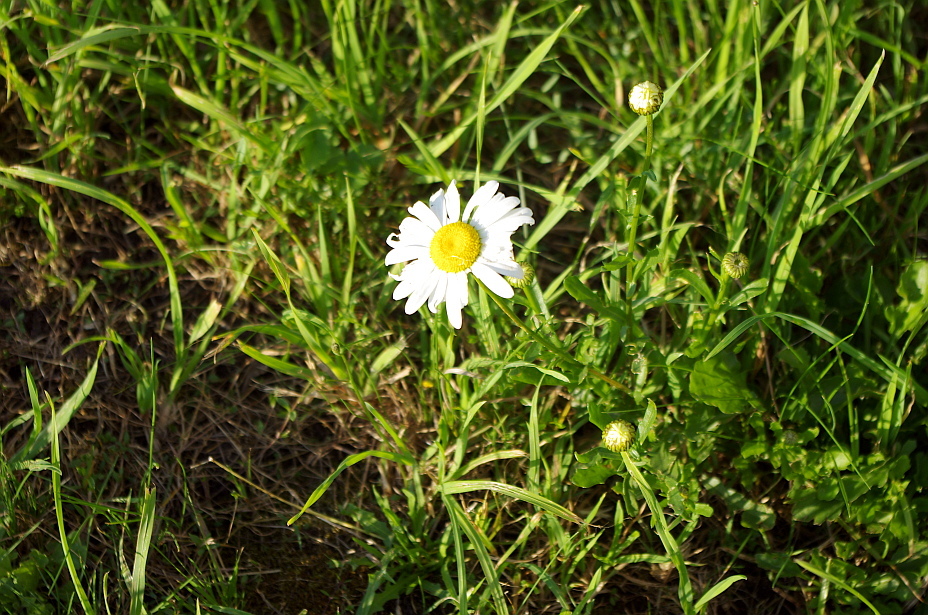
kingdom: Plantae
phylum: Tracheophyta
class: Magnoliopsida
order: Asterales
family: Asteraceae
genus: Leucanthemum
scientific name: Leucanthemum vulgare
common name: Oxeye daisy
